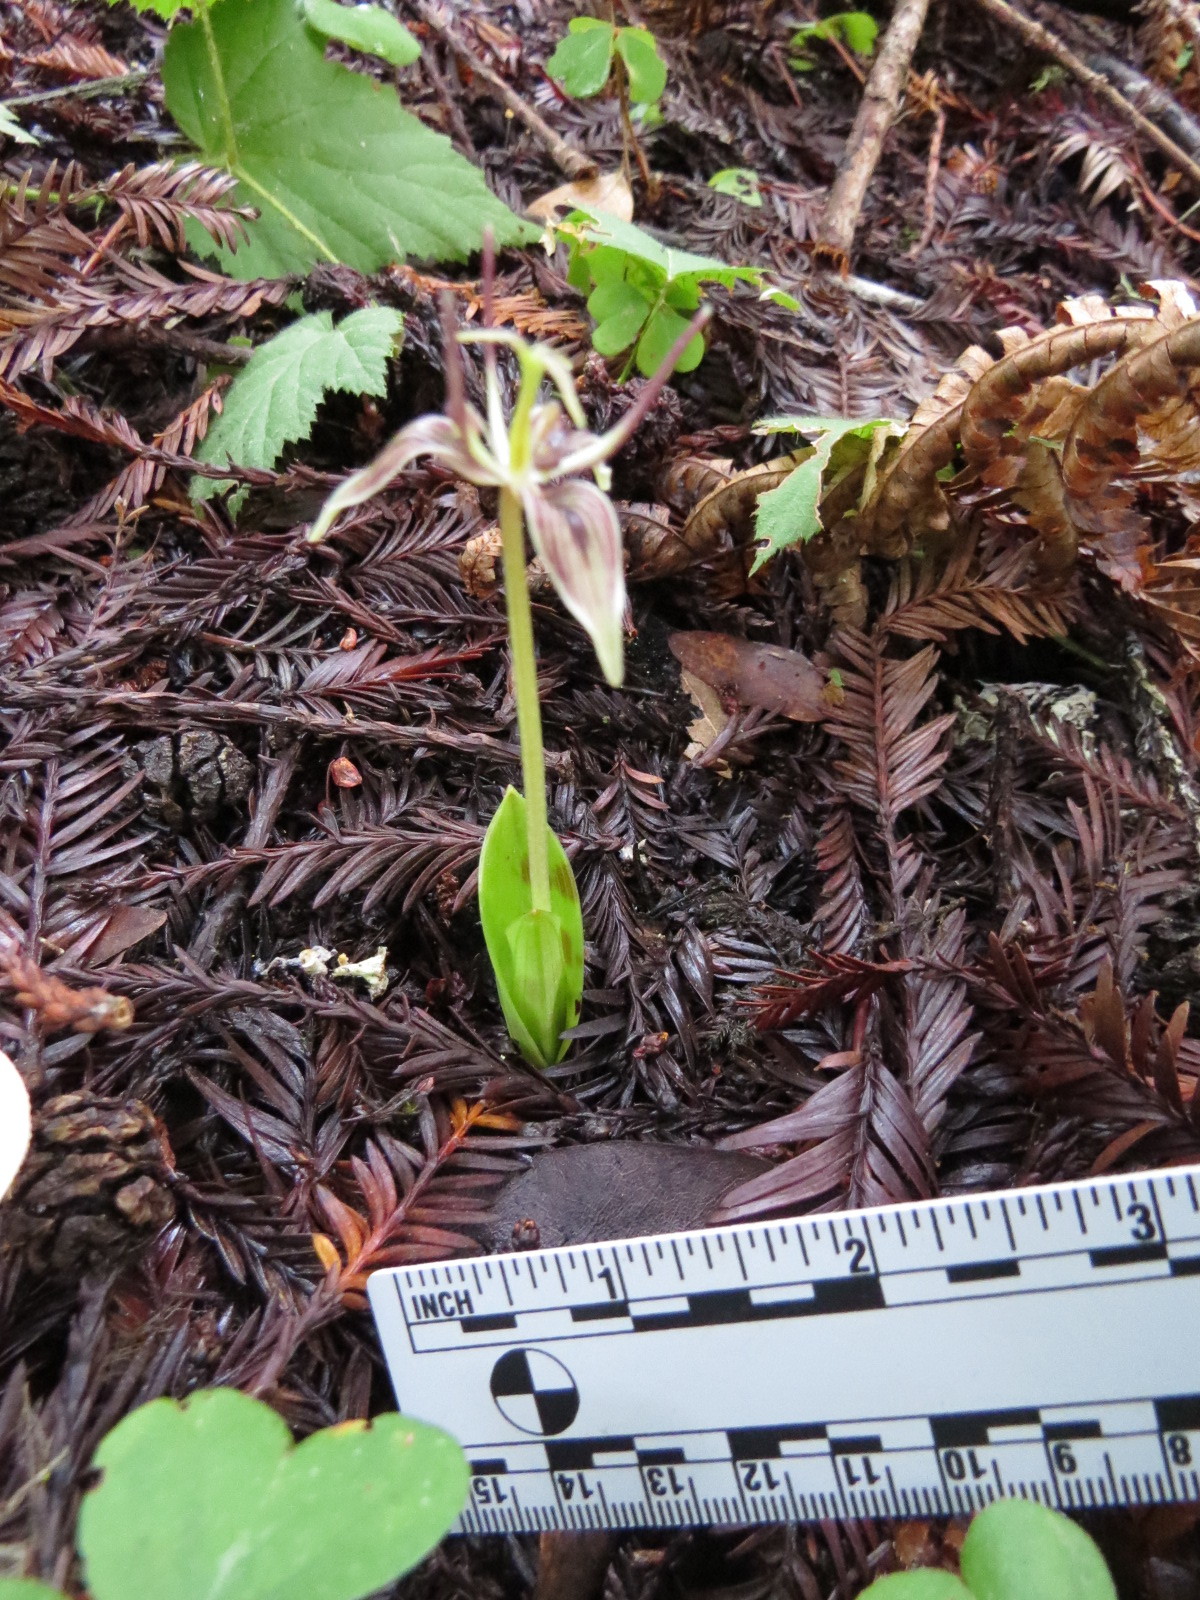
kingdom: Plantae
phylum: Tracheophyta
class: Liliopsida
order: Liliales
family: Liliaceae
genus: Scoliopus
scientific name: Scoliopus bigelovii
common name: Foetid adder's-tongue
